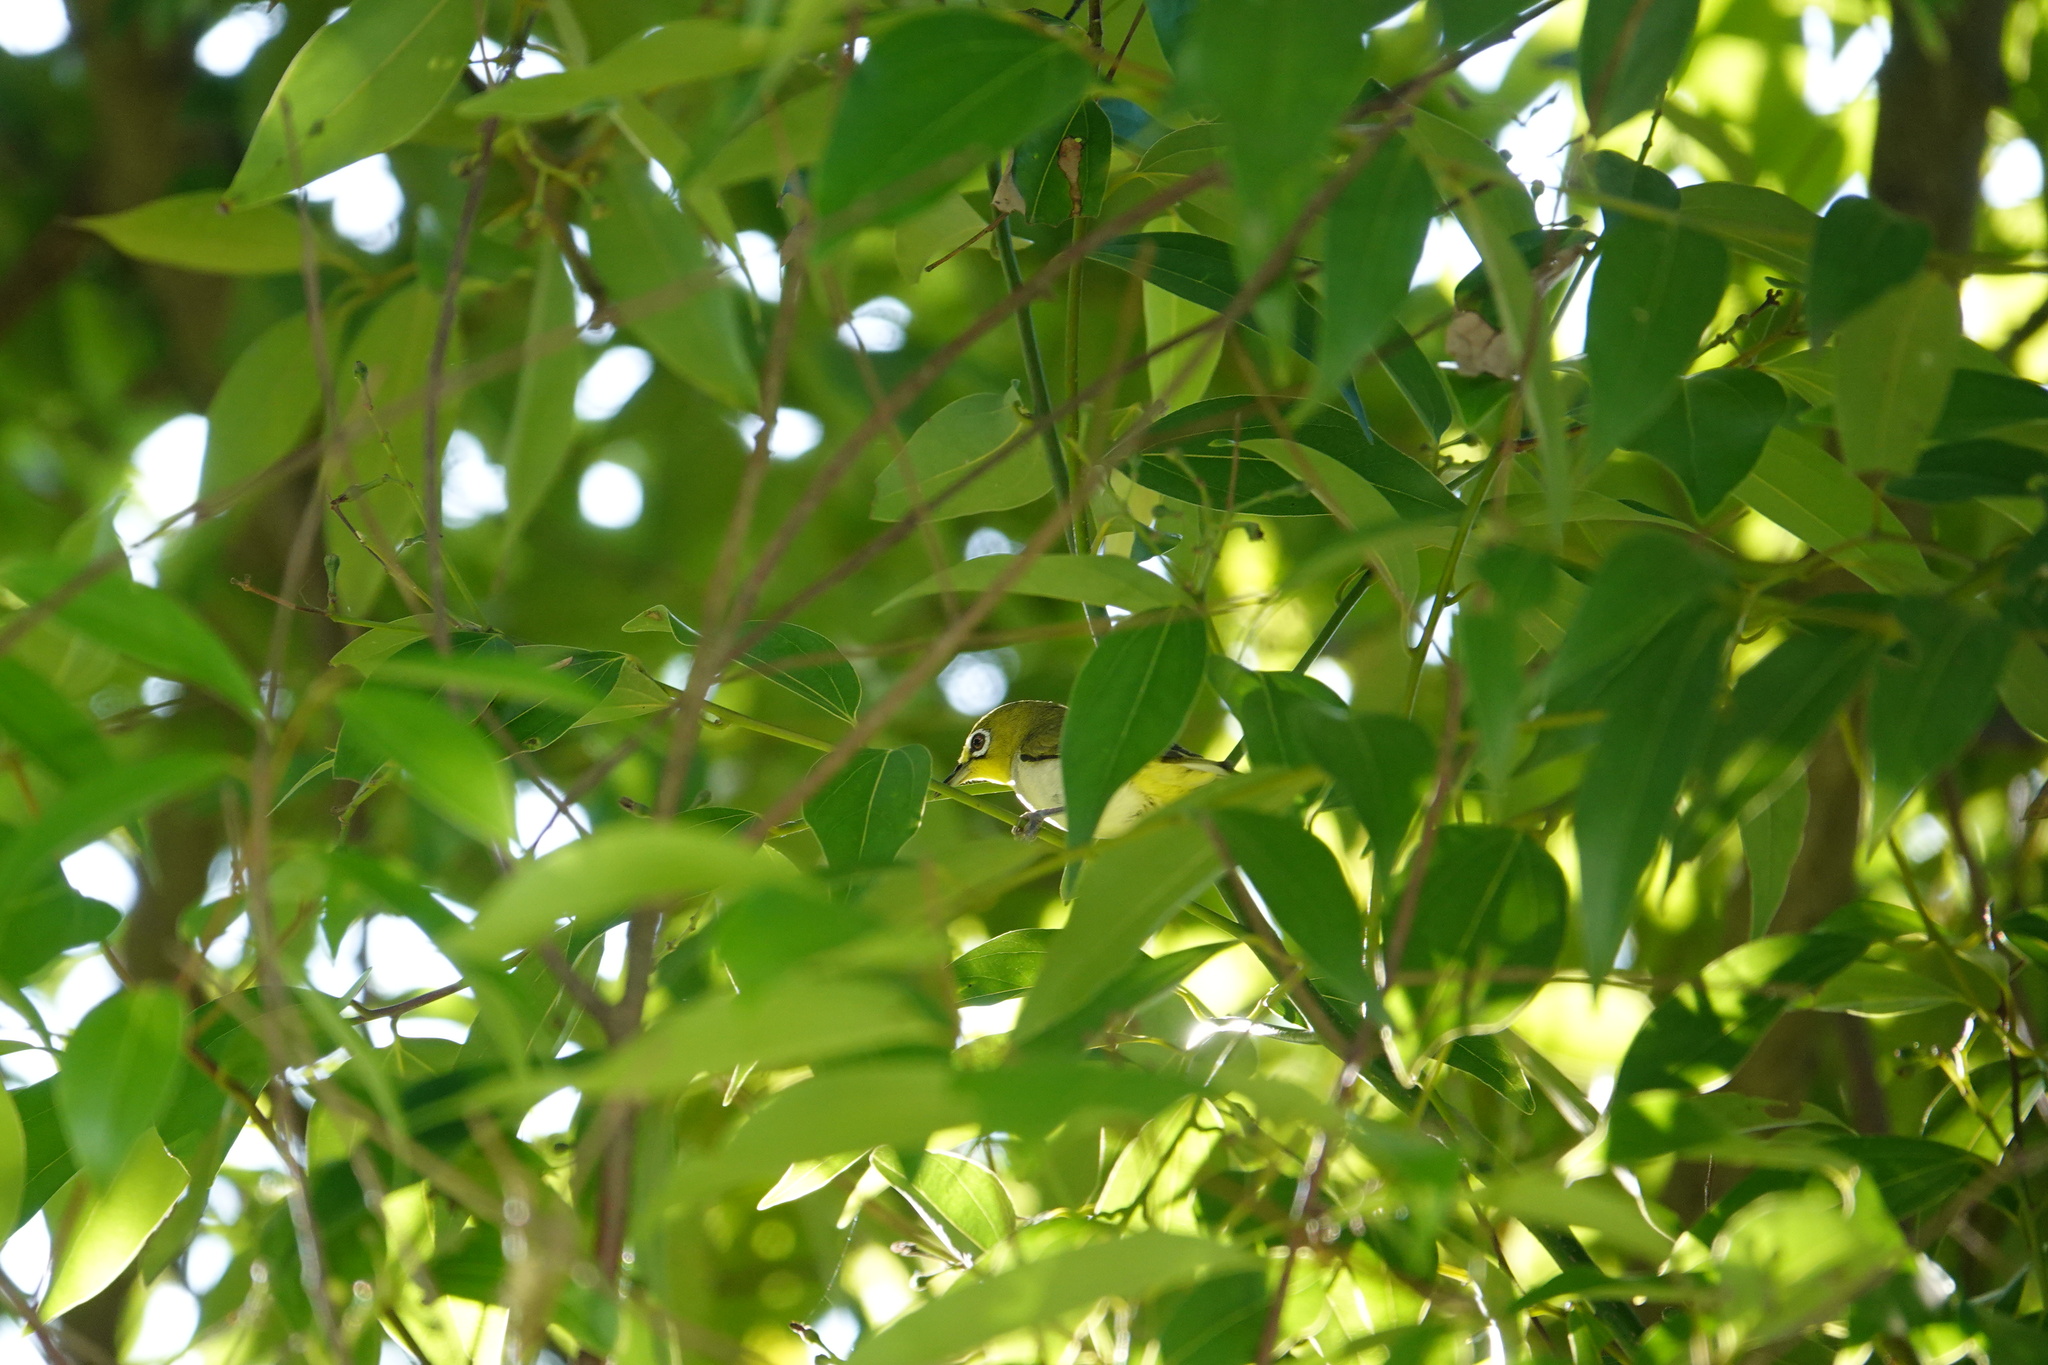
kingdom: Animalia
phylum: Chordata
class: Aves
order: Passeriformes
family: Zosteropidae
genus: Zosterops
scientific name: Zosterops simplex
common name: Swinhoe's white-eye
